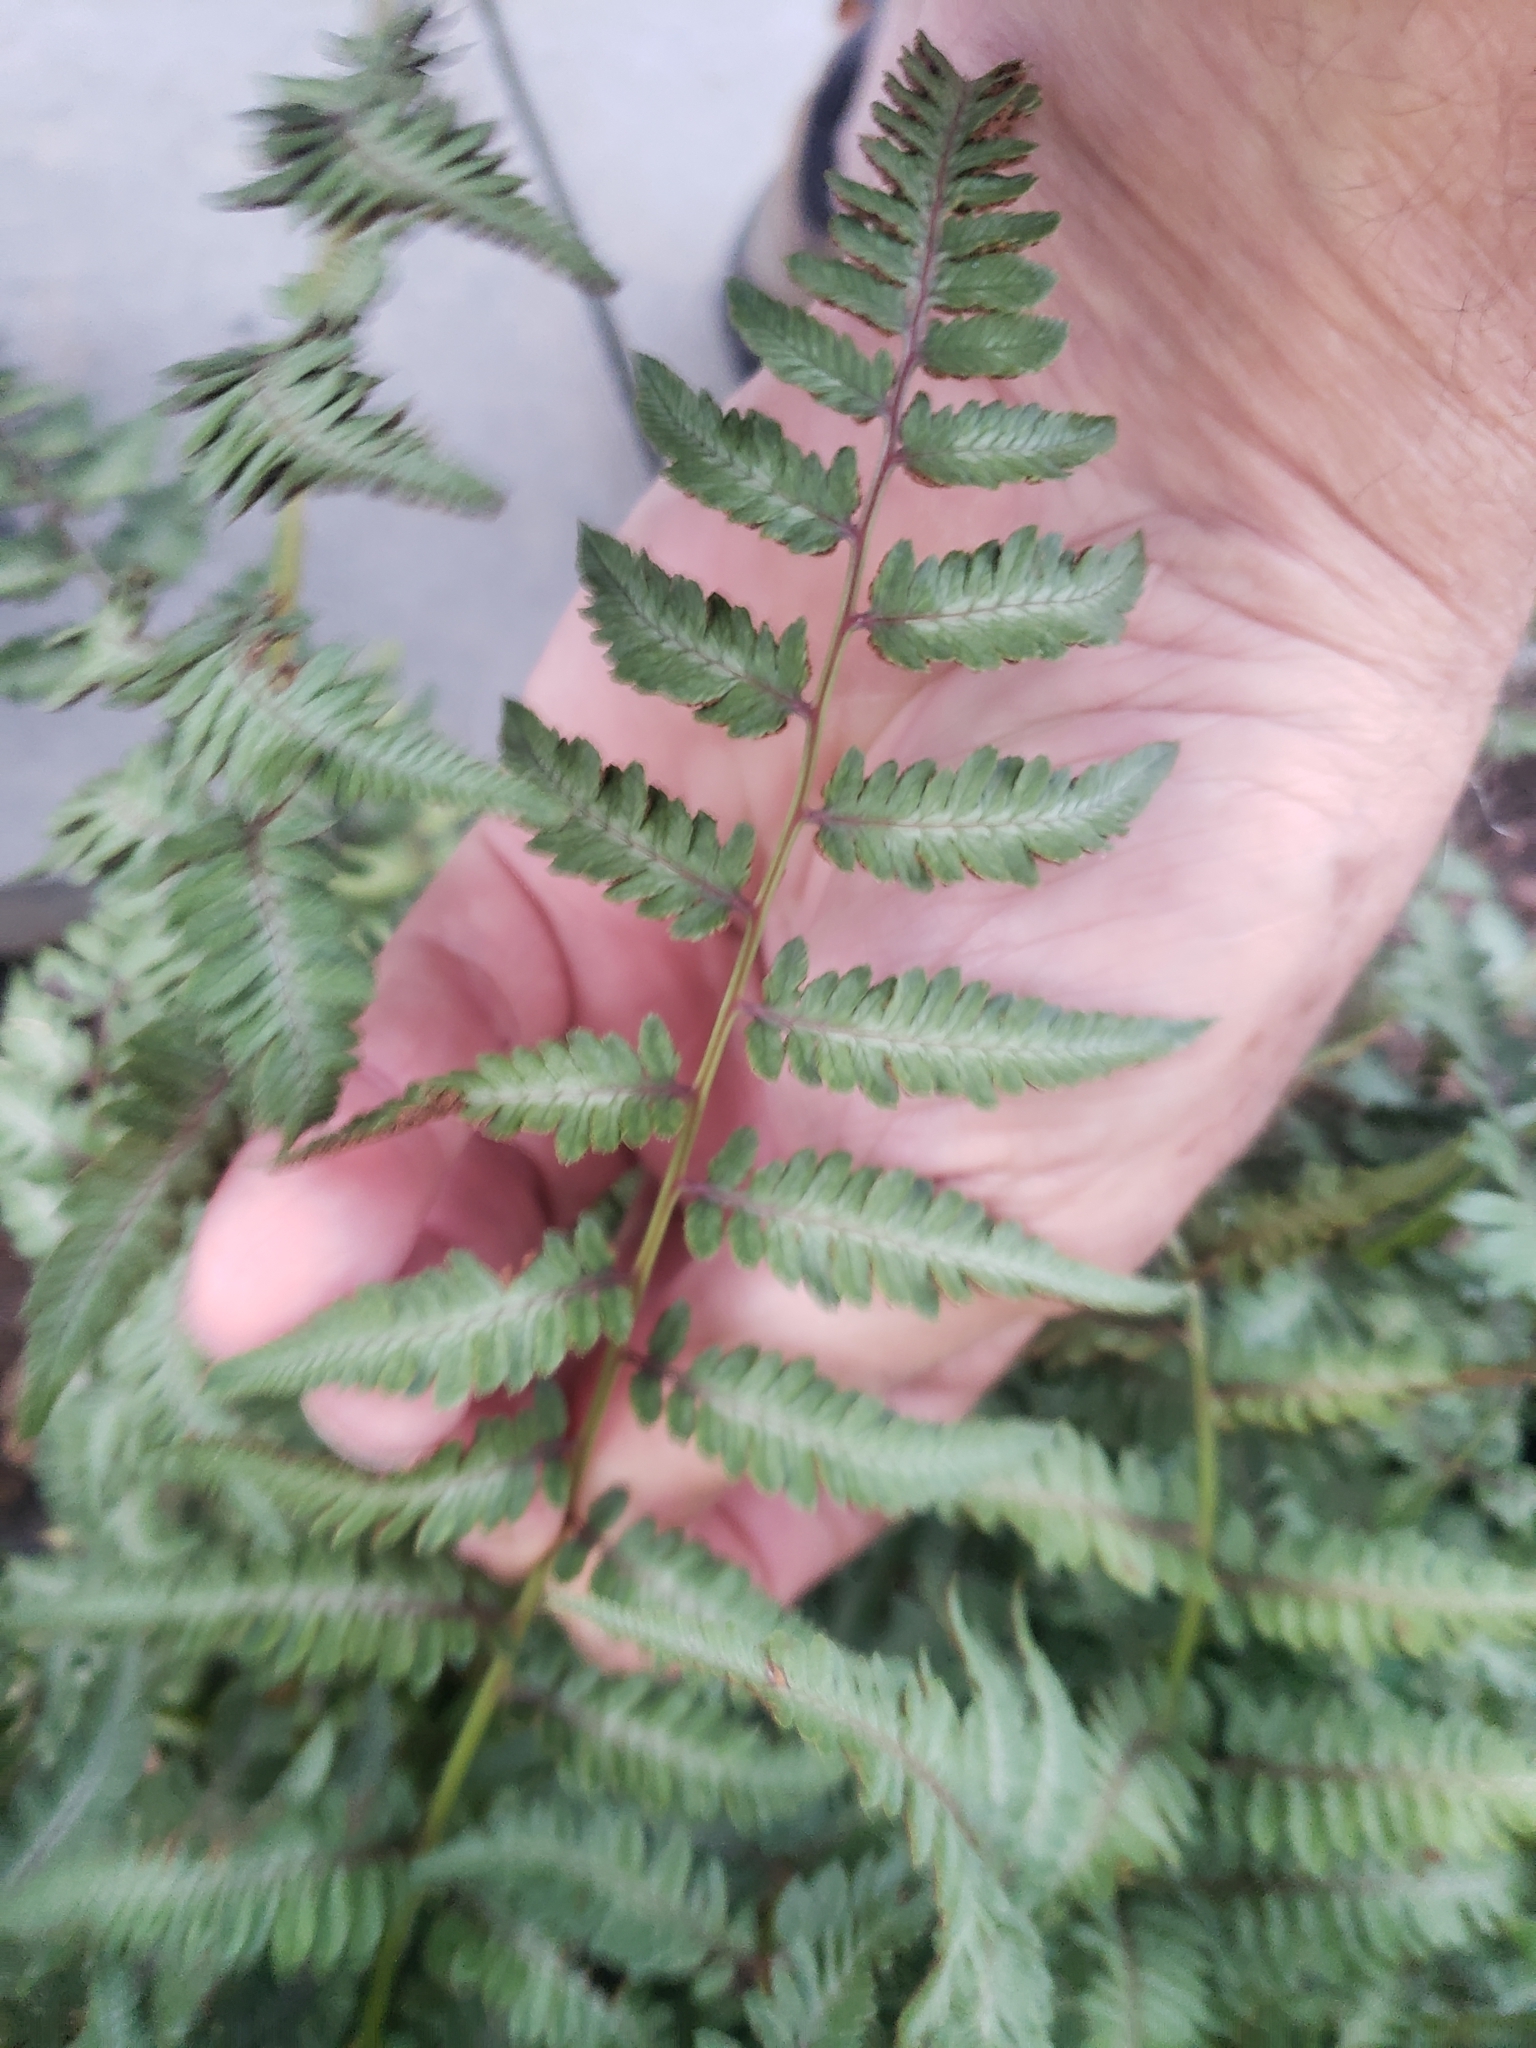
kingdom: Plantae
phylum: Tracheophyta
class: Polypodiopsida
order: Polypodiales
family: Athyriaceae
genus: Anisocampium
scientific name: Anisocampium niponicum
